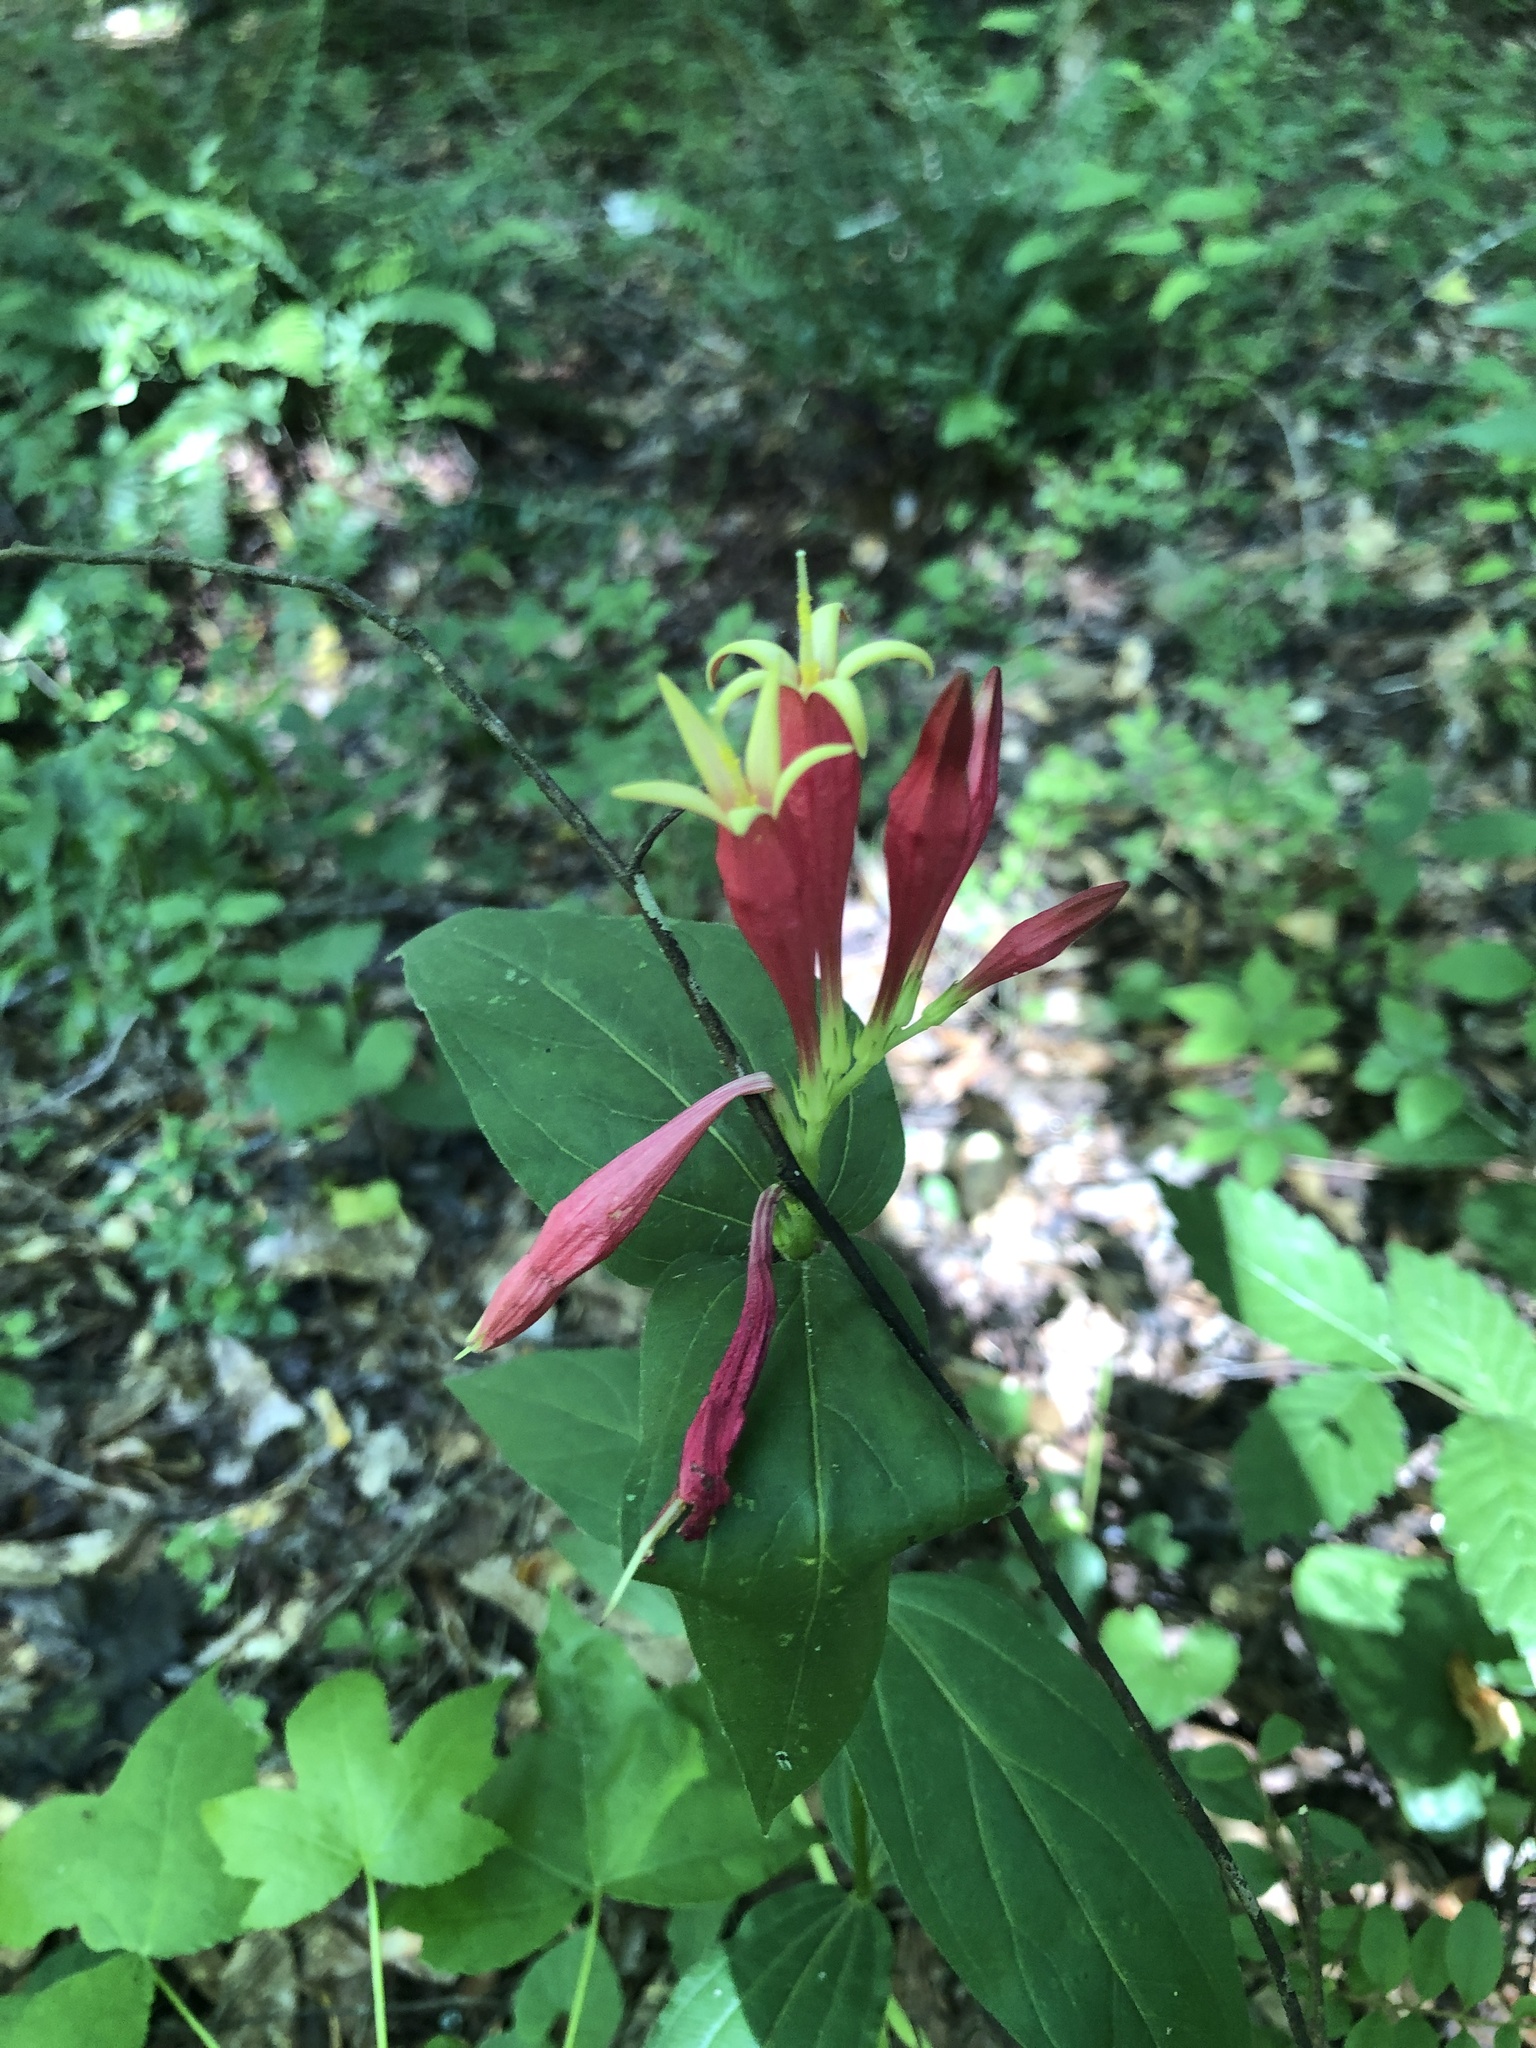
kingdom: Plantae
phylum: Tracheophyta
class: Magnoliopsida
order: Gentianales
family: Loganiaceae
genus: Spigelia
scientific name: Spigelia marilandica
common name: Indian-pink
